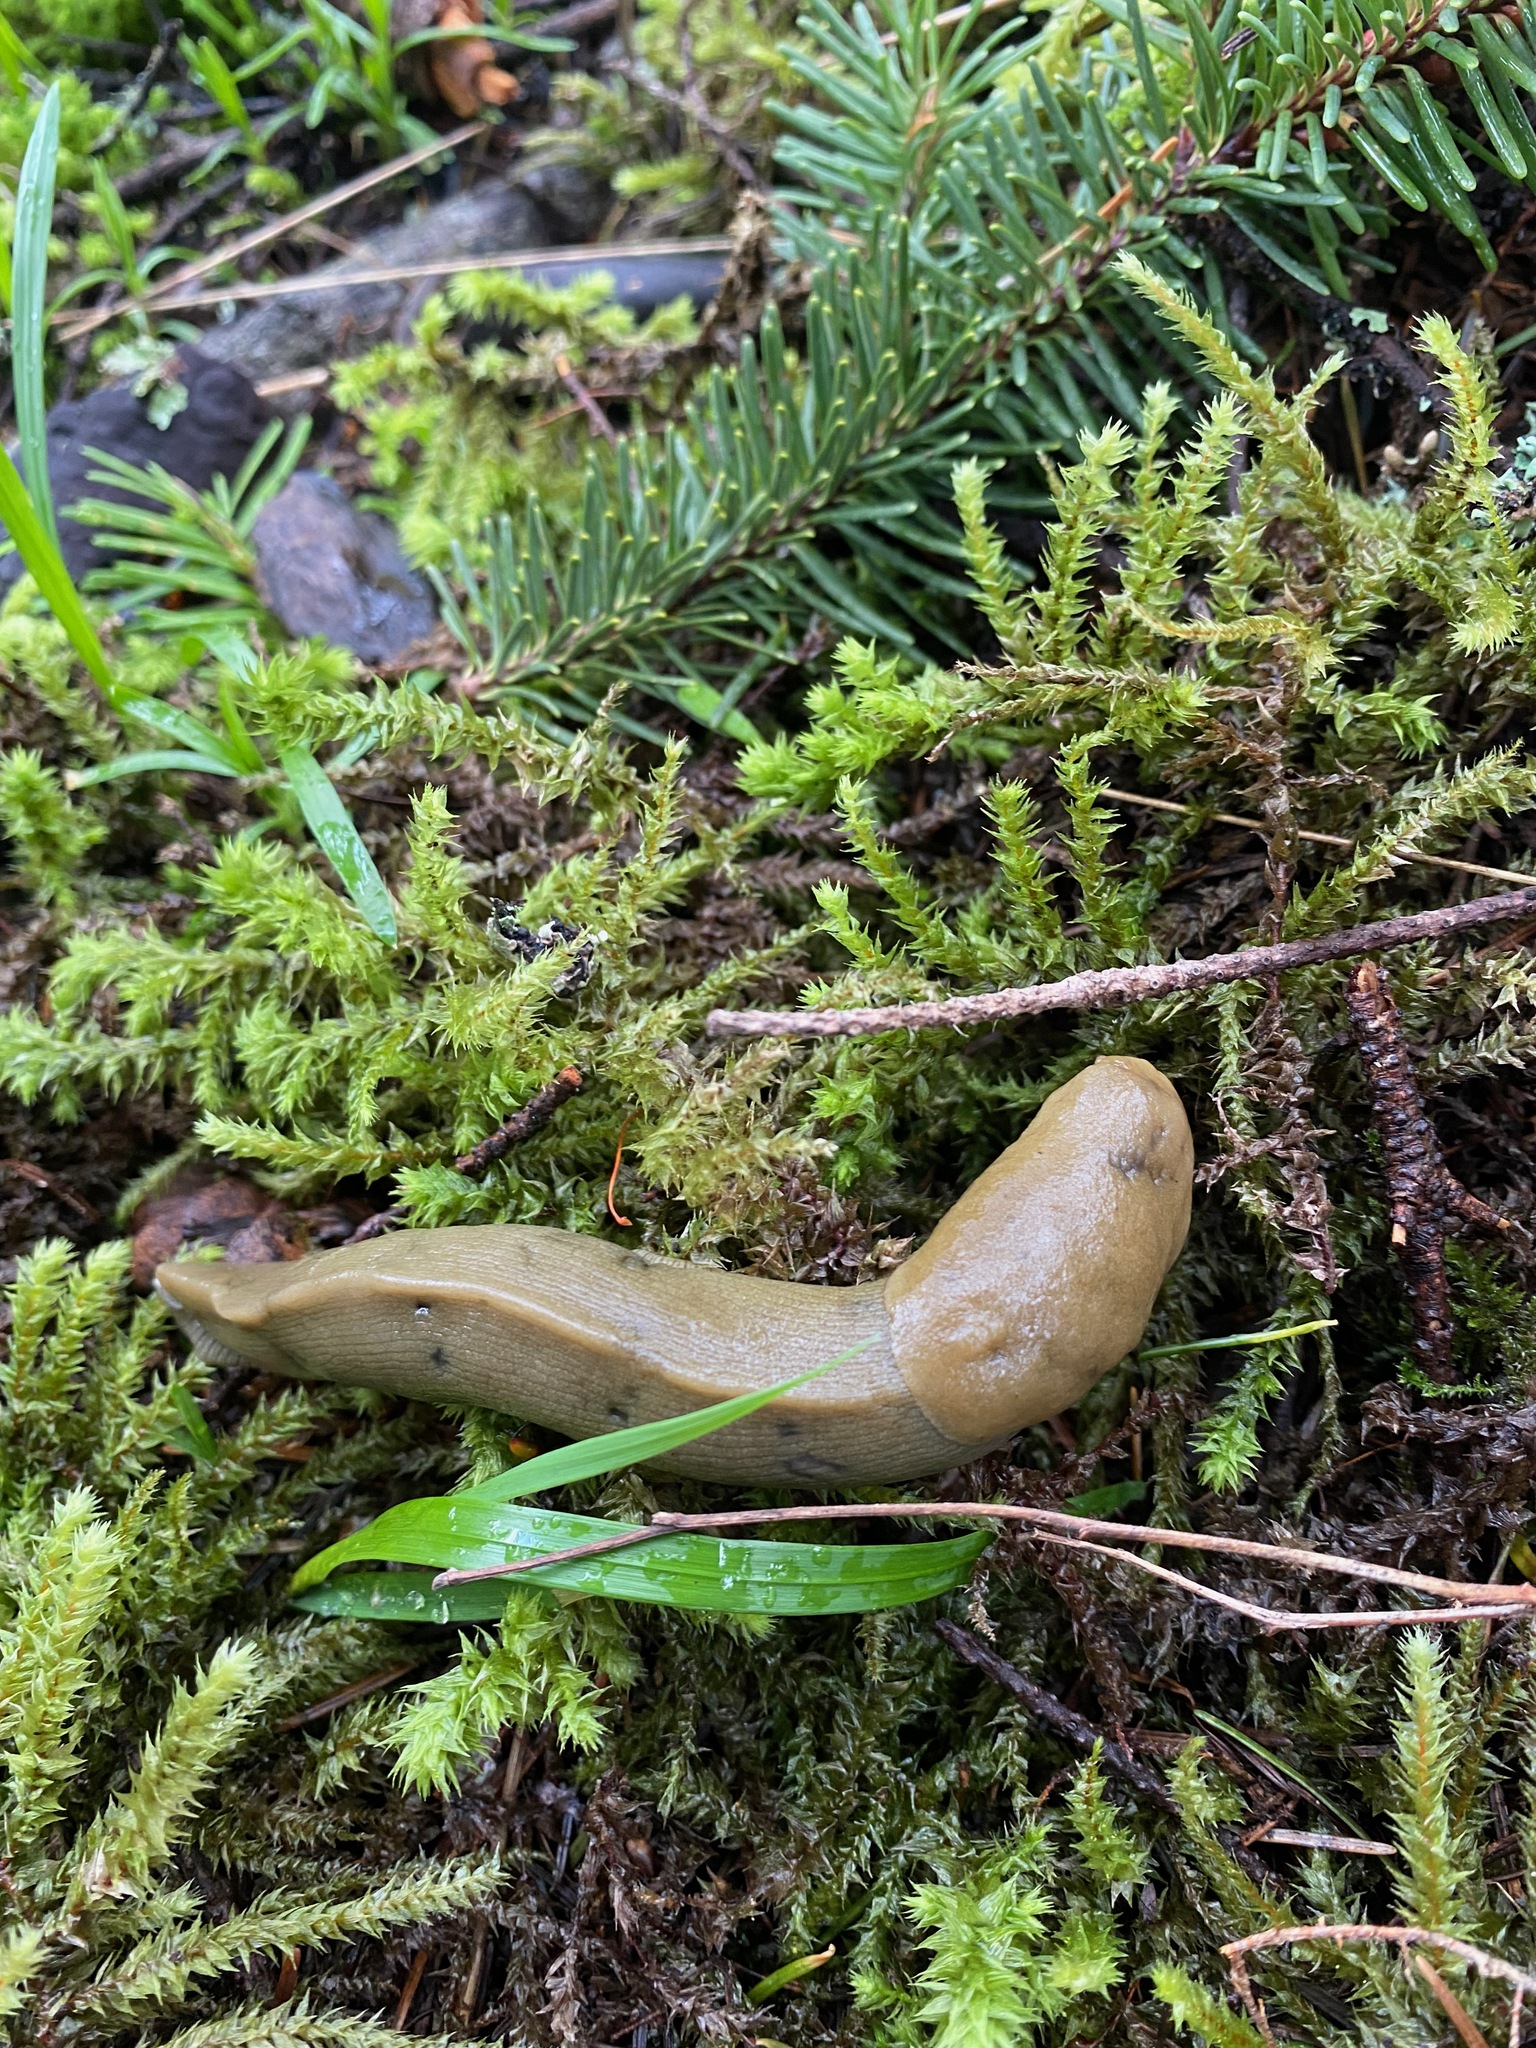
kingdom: Animalia
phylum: Mollusca
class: Gastropoda
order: Stylommatophora
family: Ariolimacidae
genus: Ariolimax
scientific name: Ariolimax columbianus
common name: Pacific banana slug
